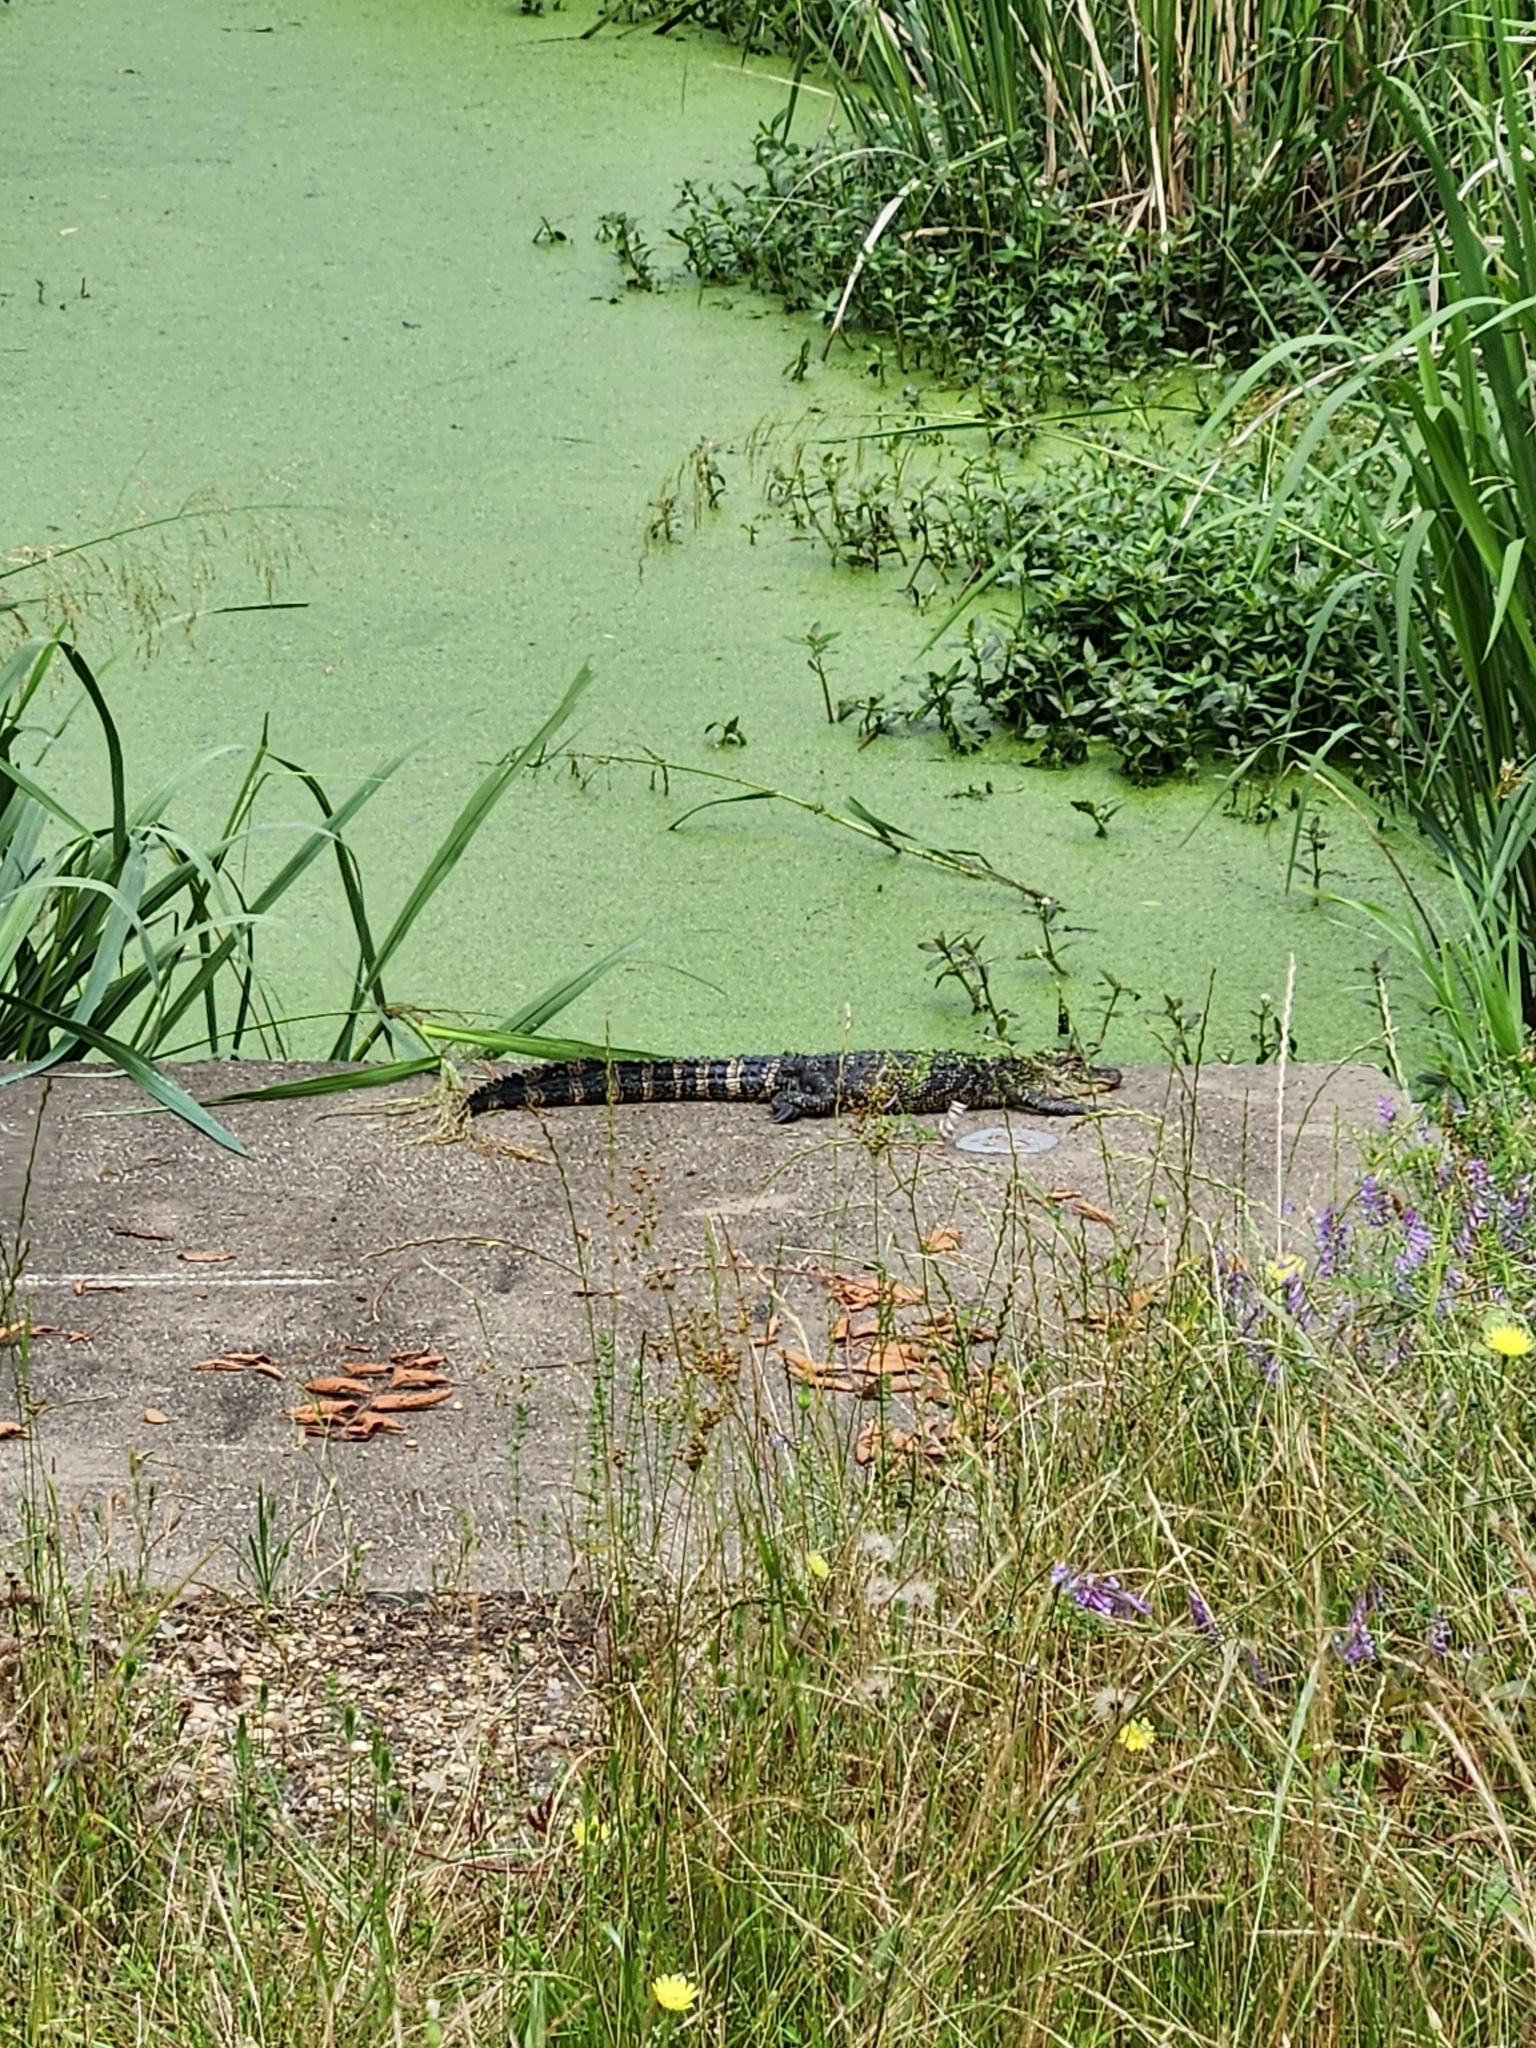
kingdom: Animalia
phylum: Chordata
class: Crocodylia
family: Alligatoridae
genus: Alligator
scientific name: Alligator mississippiensis
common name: American alligator
